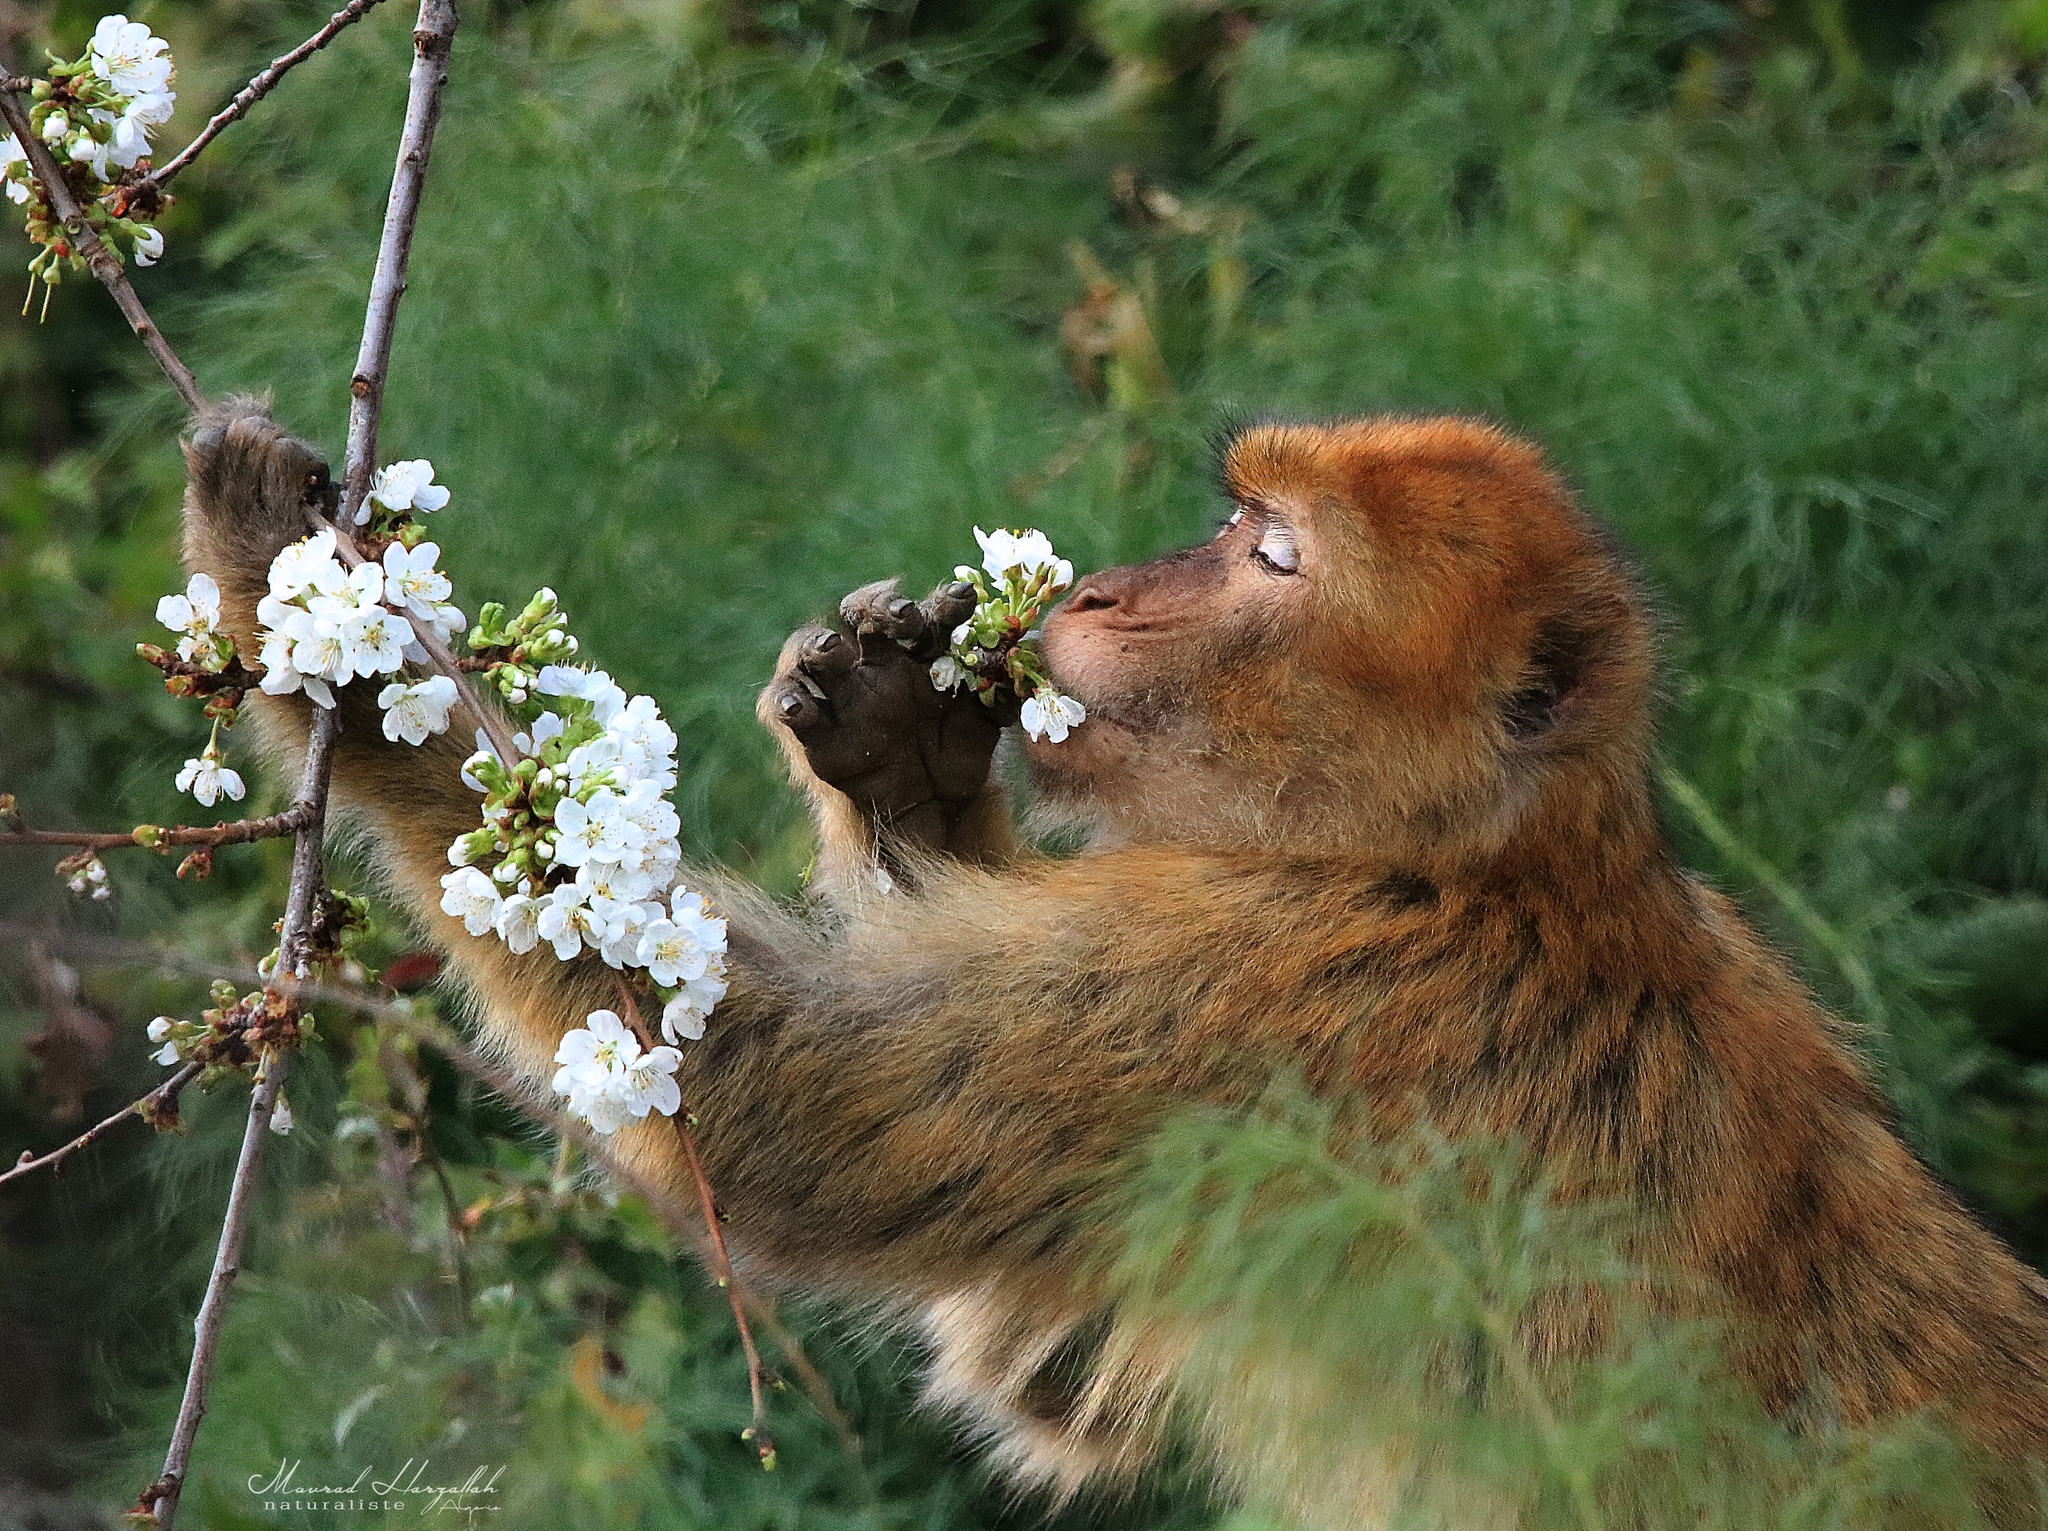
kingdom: Animalia
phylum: Chordata
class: Mammalia
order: Primates
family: Cercopithecidae
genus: Macaca
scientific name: Macaca sylvanus
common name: Barbary macaque
